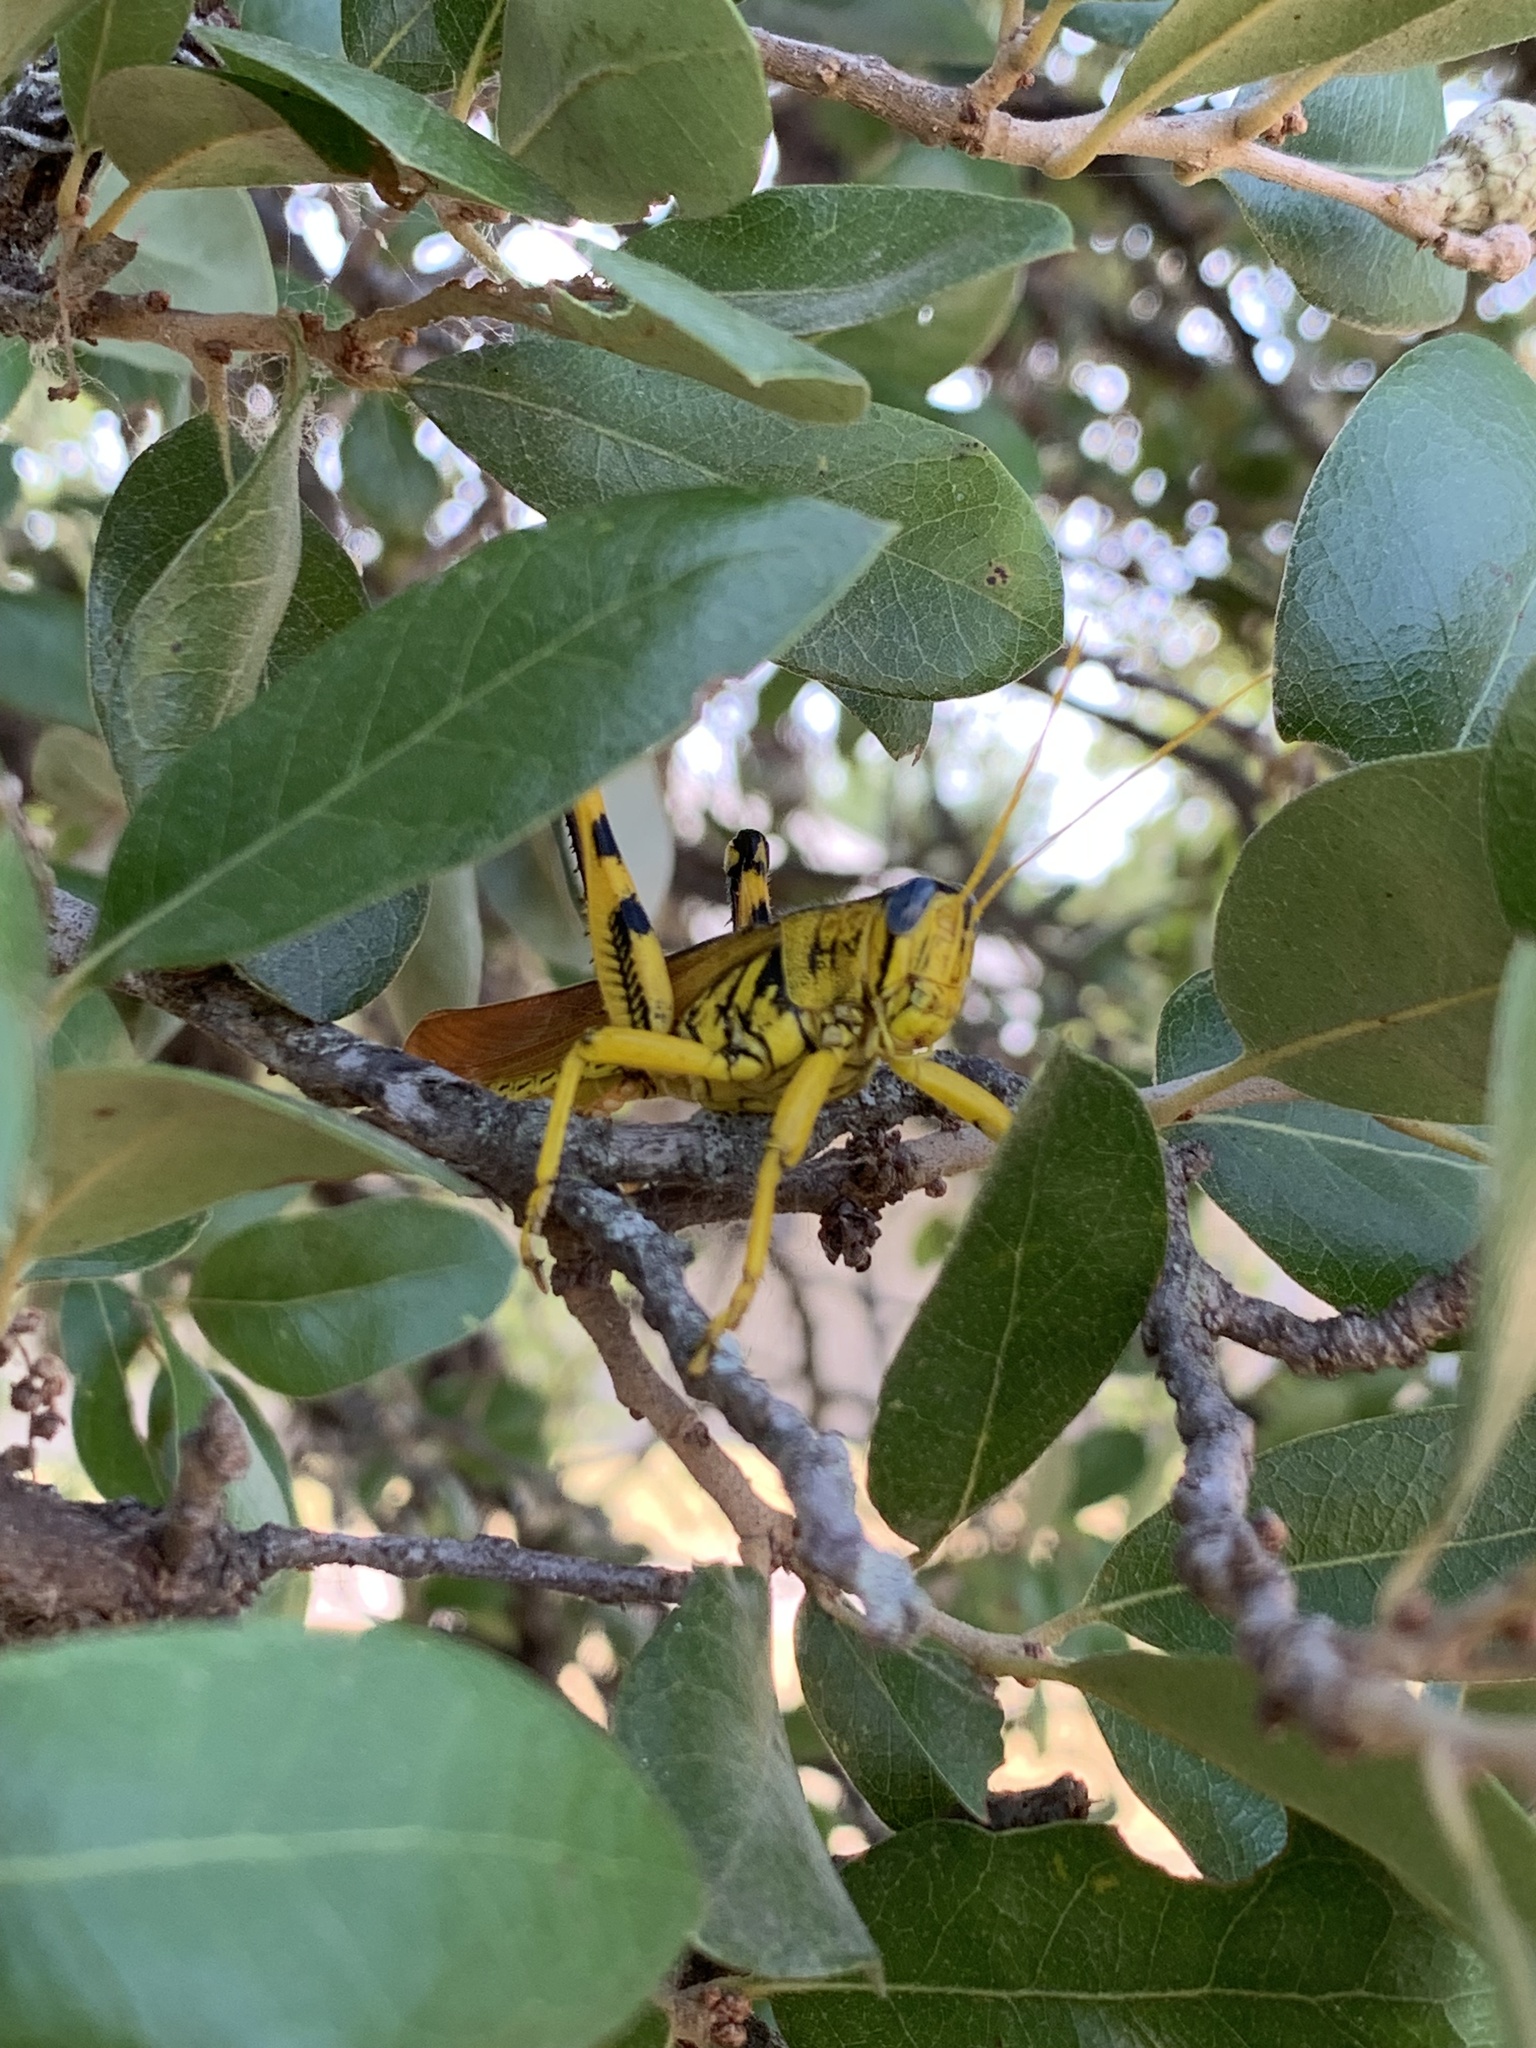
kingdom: Animalia
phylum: Arthropoda
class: Insecta
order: Orthoptera
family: Acrididae
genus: Schistocerca
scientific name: Schistocerca lineata
